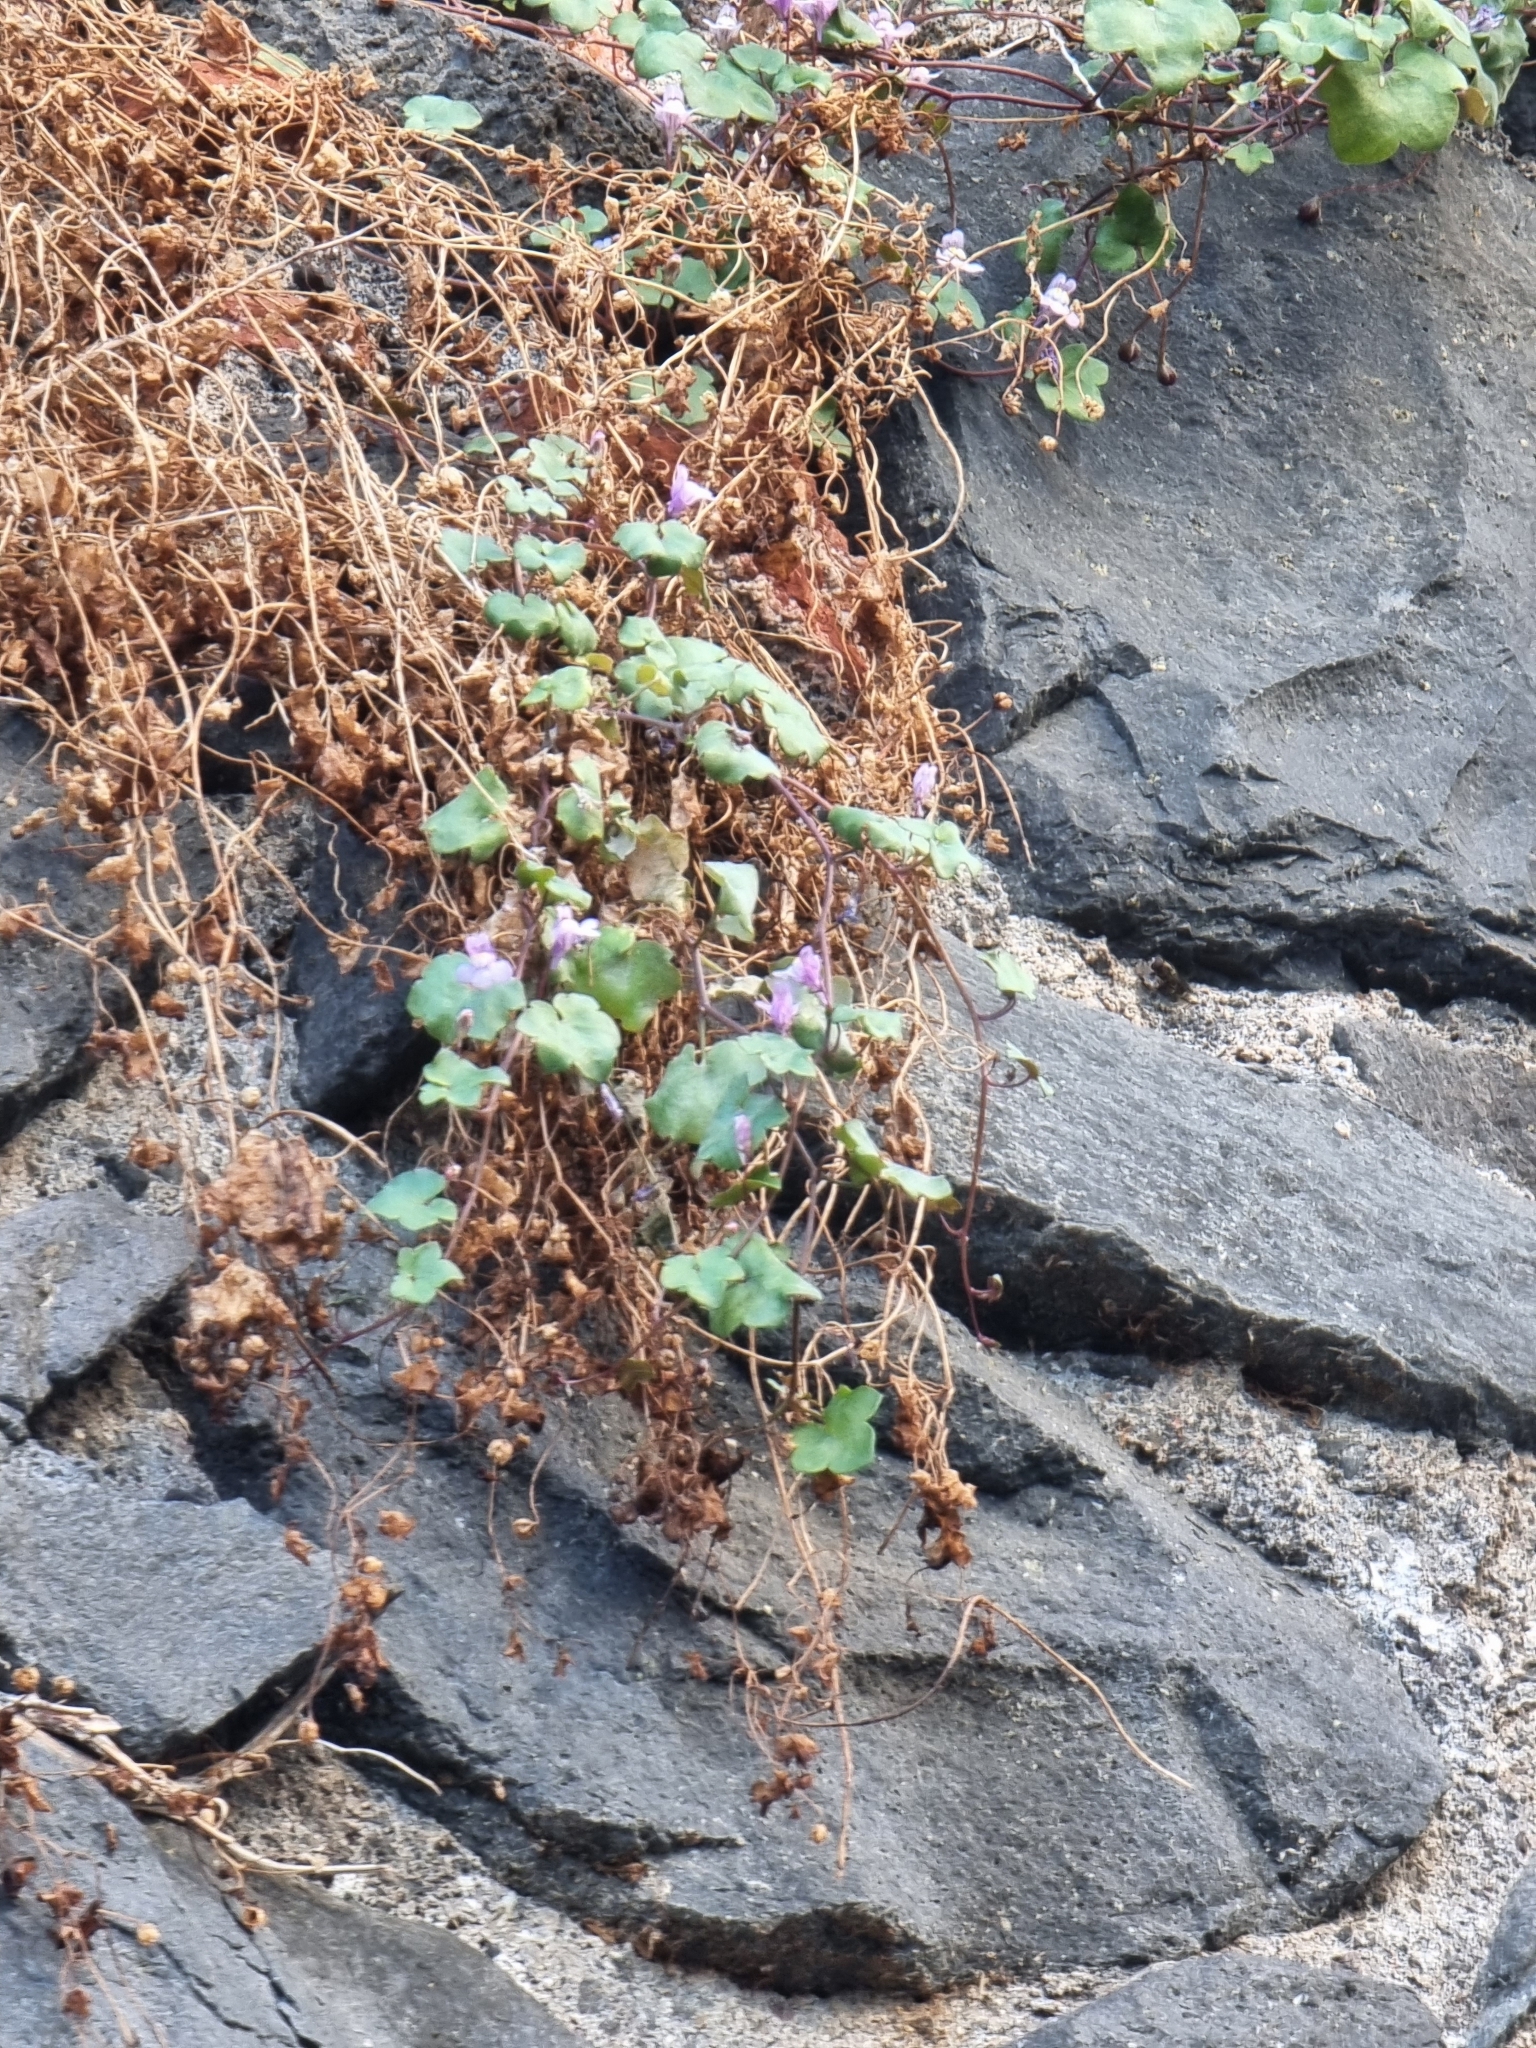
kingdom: Plantae
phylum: Tracheophyta
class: Magnoliopsida
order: Lamiales
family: Plantaginaceae
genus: Cymbalaria
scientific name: Cymbalaria muralis
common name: Ivy-leaved toadflax
